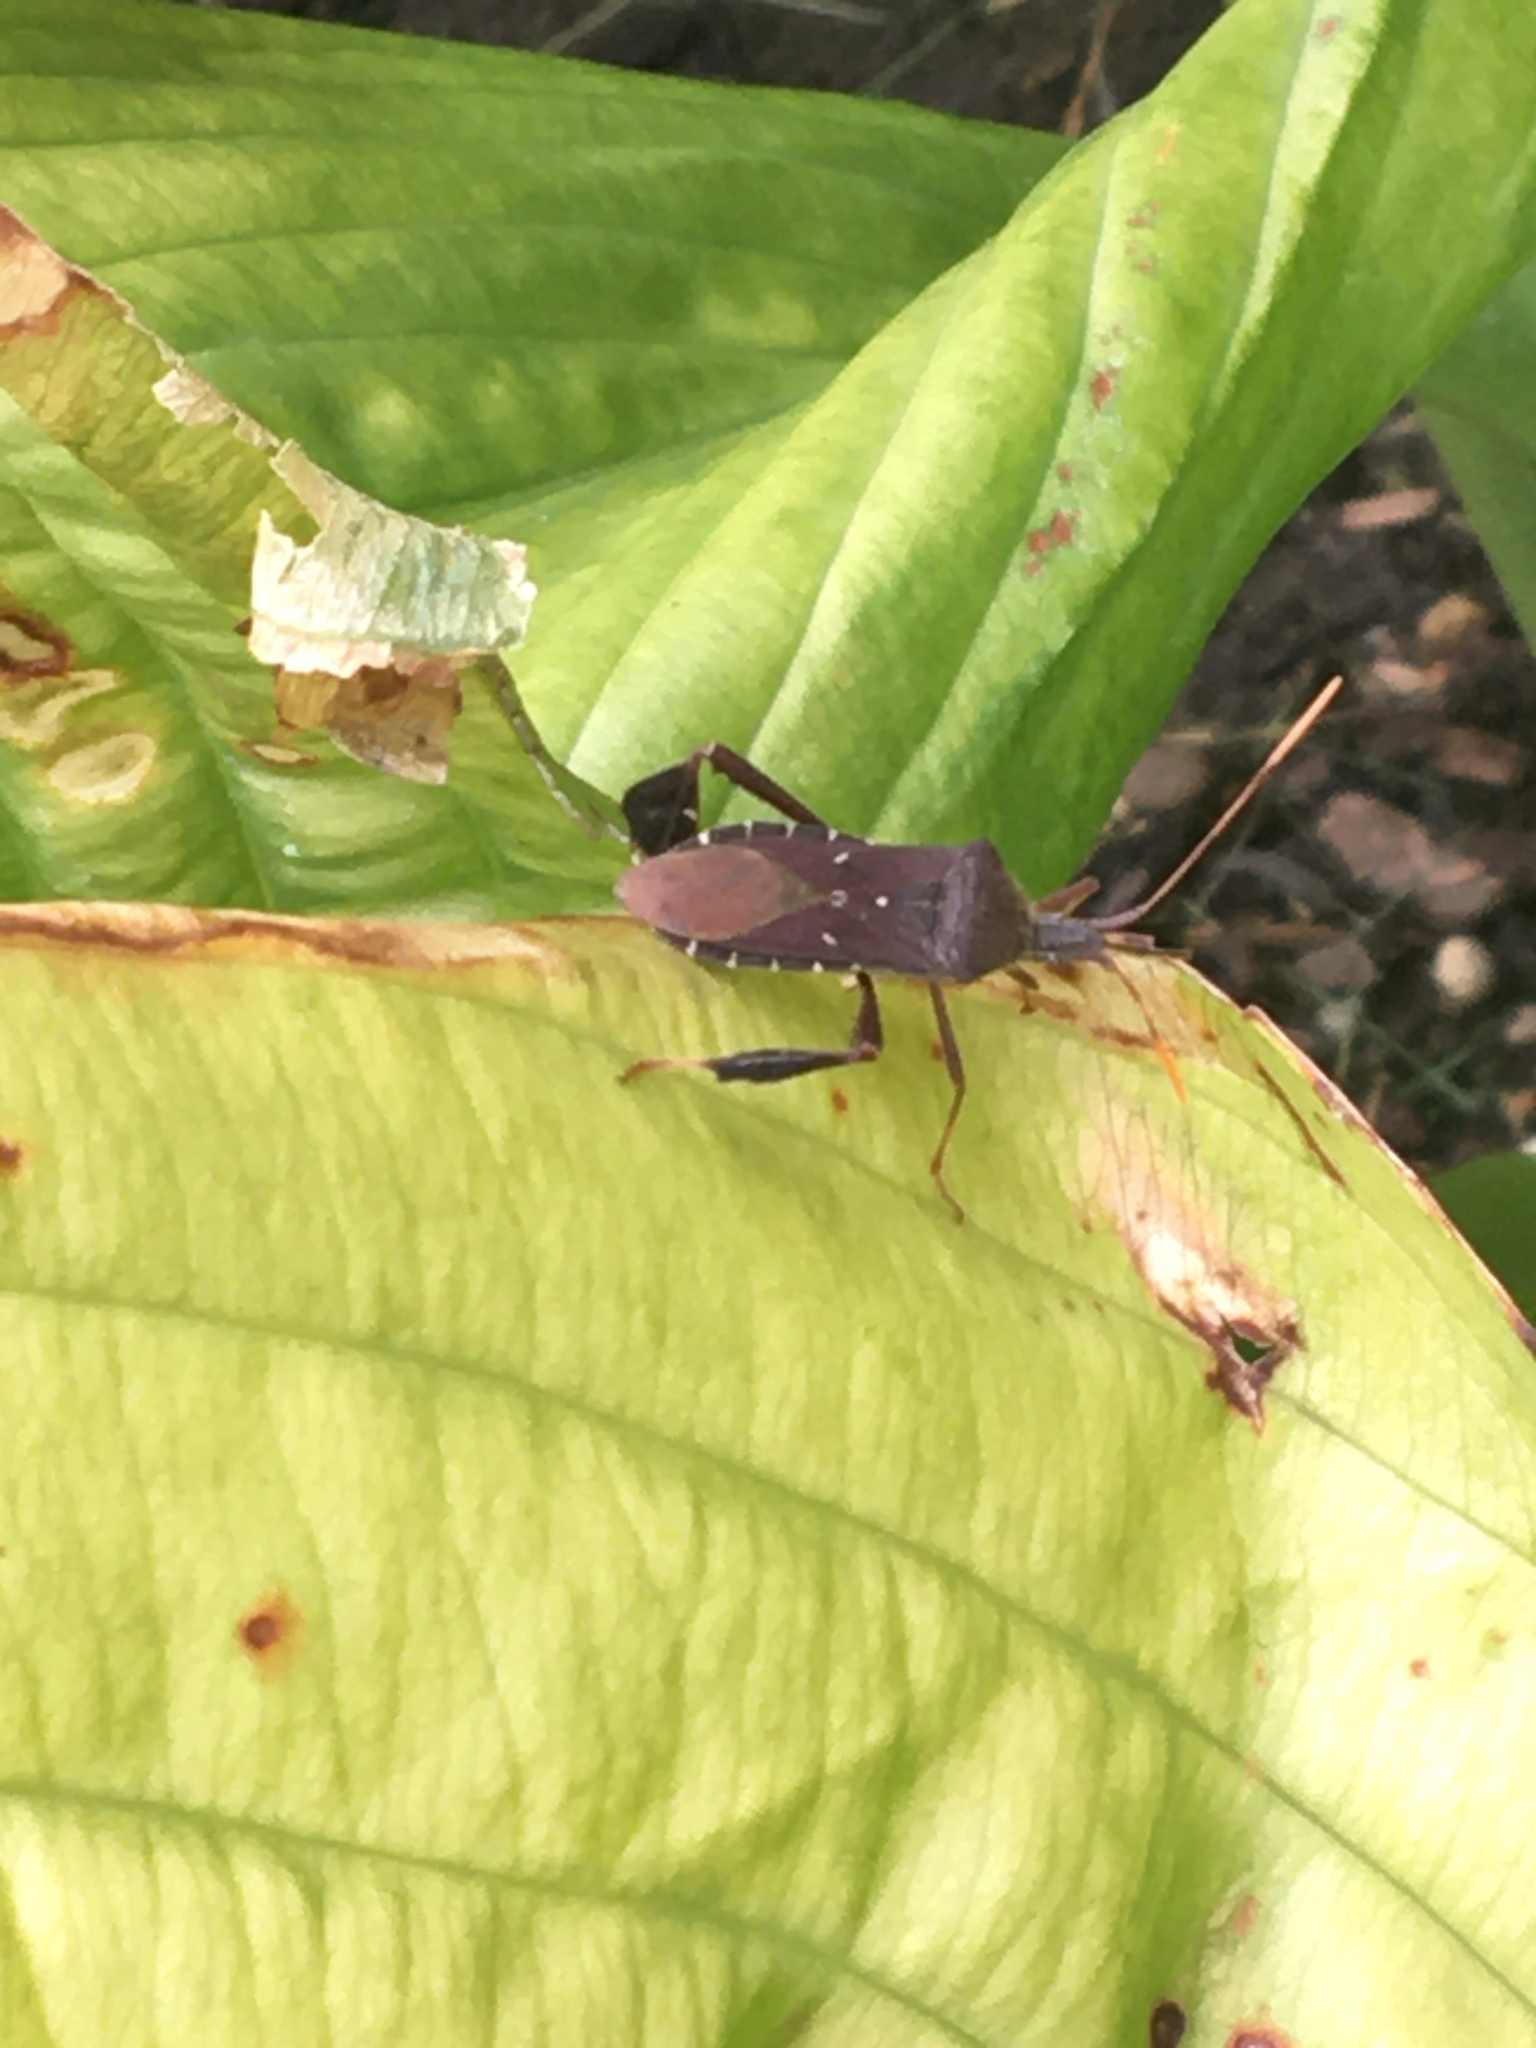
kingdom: Animalia
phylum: Arthropoda
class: Insecta
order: Hemiptera
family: Coreidae
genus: Leptoglossus
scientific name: Leptoglossus oppositus
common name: Northern leaf-footed bug
